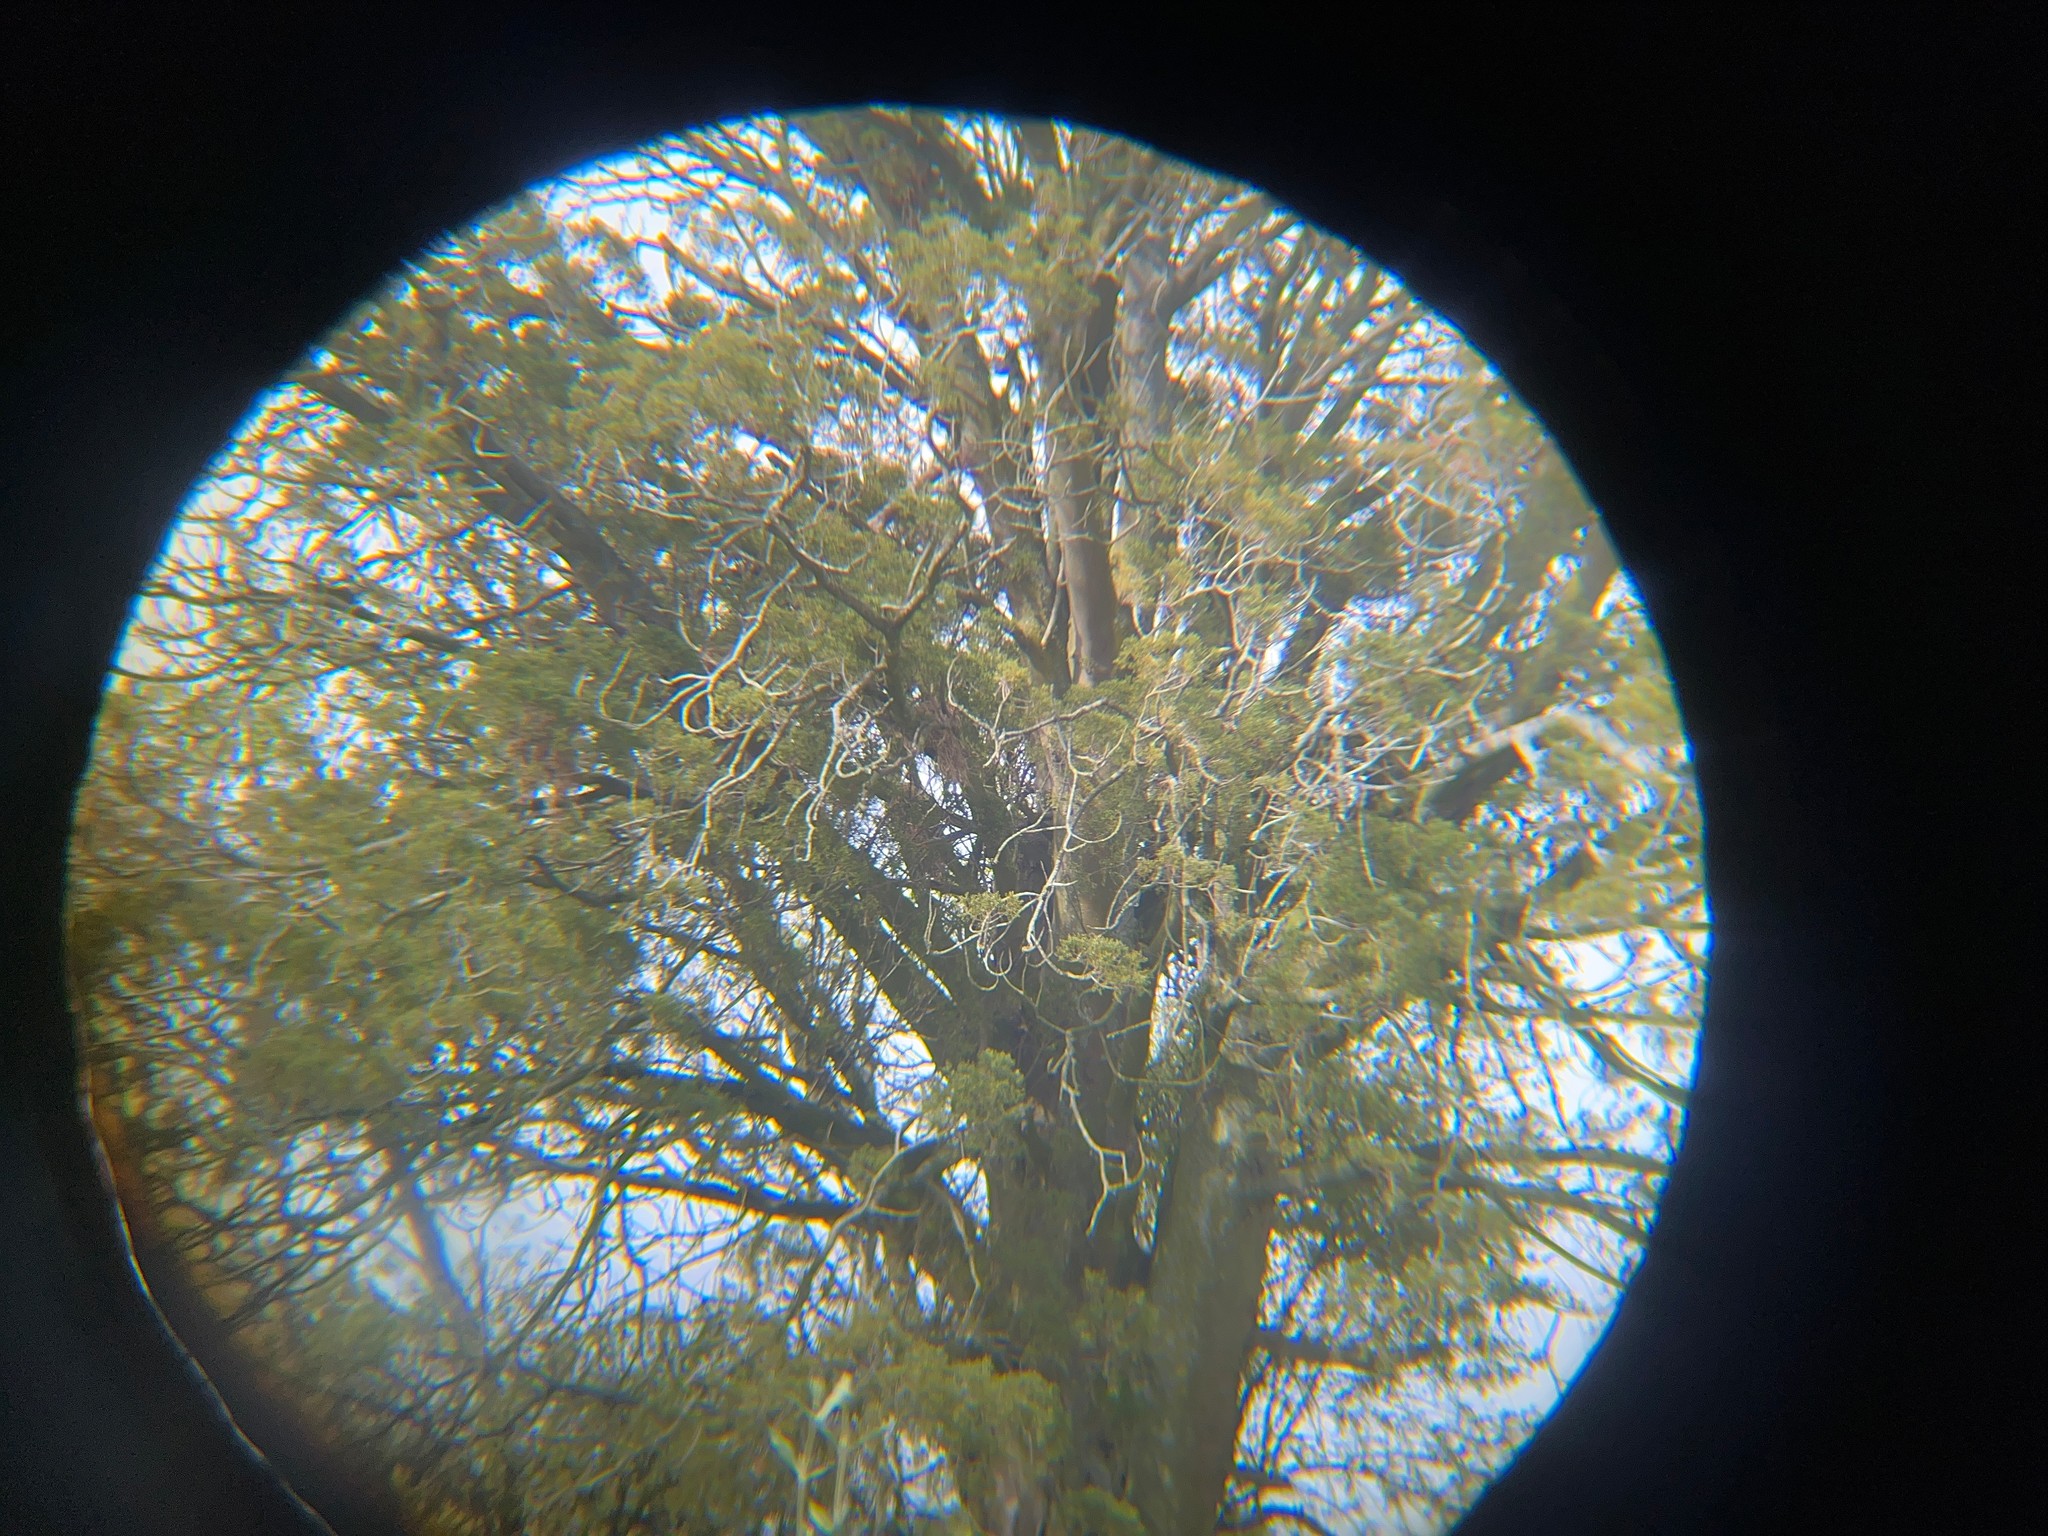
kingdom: Plantae
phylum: Tracheophyta
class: Pinopsida
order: Pinales
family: Podocarpaceae
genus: Dacrycarpus
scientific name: Dacrycarpus dacrydioides
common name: White pine
